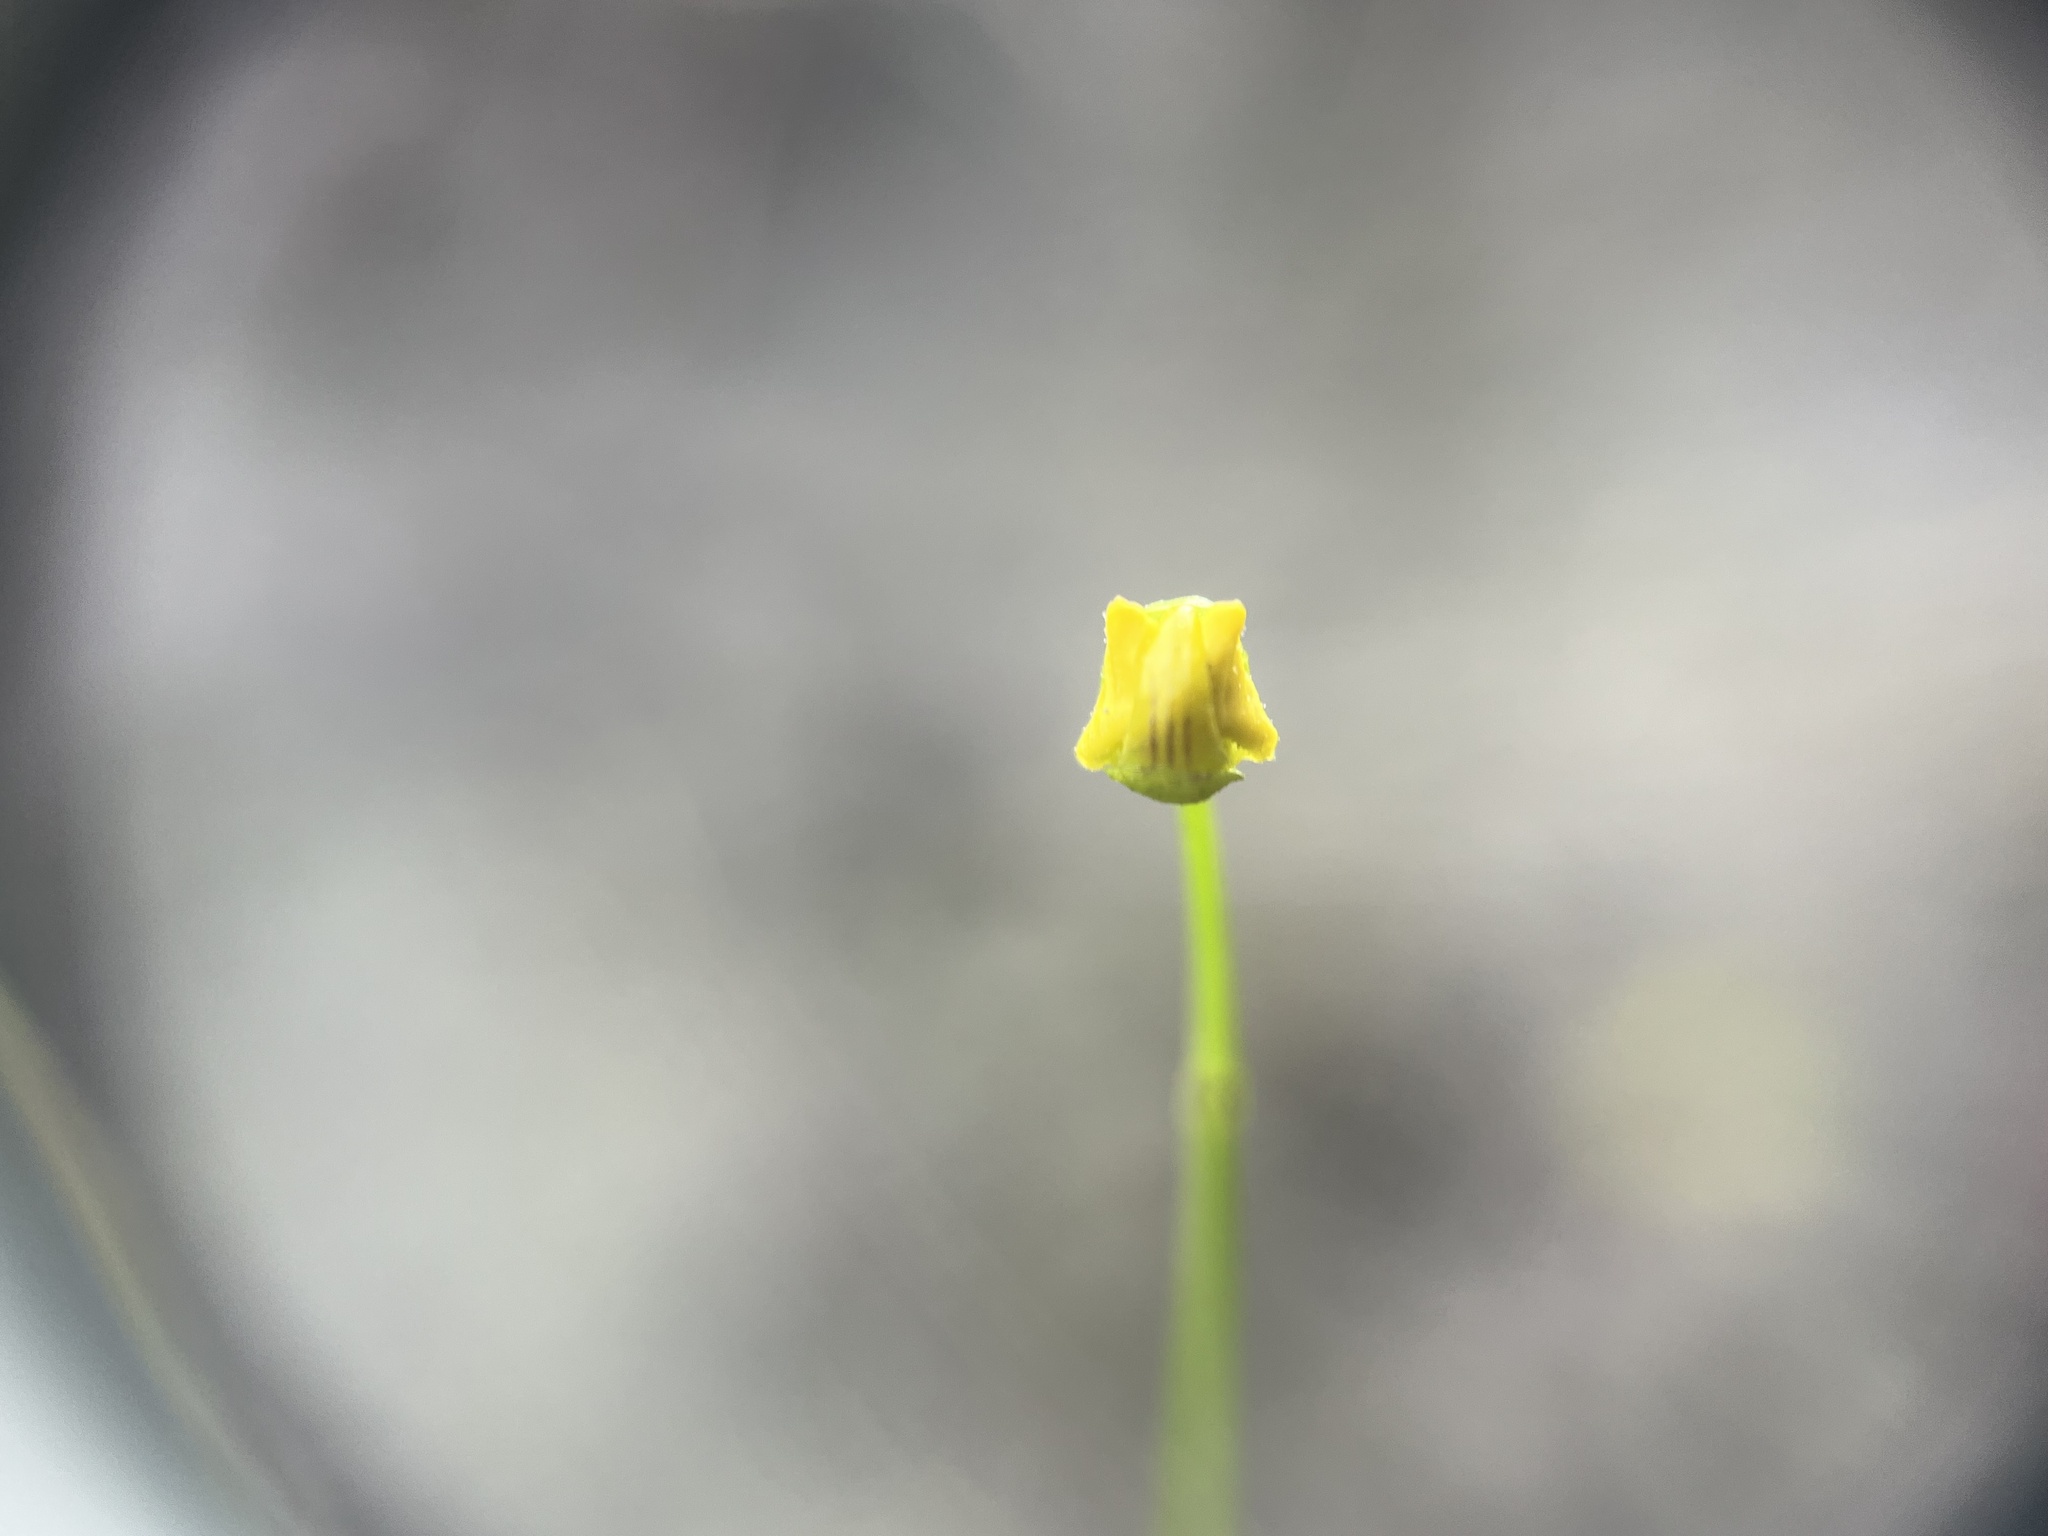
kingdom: Plantae
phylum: Tracheophyta
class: Magnoliopsida
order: Lamiales
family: Lentibulariaceae
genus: Utricularia
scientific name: Utricularia gibba
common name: Humped bladderwort
